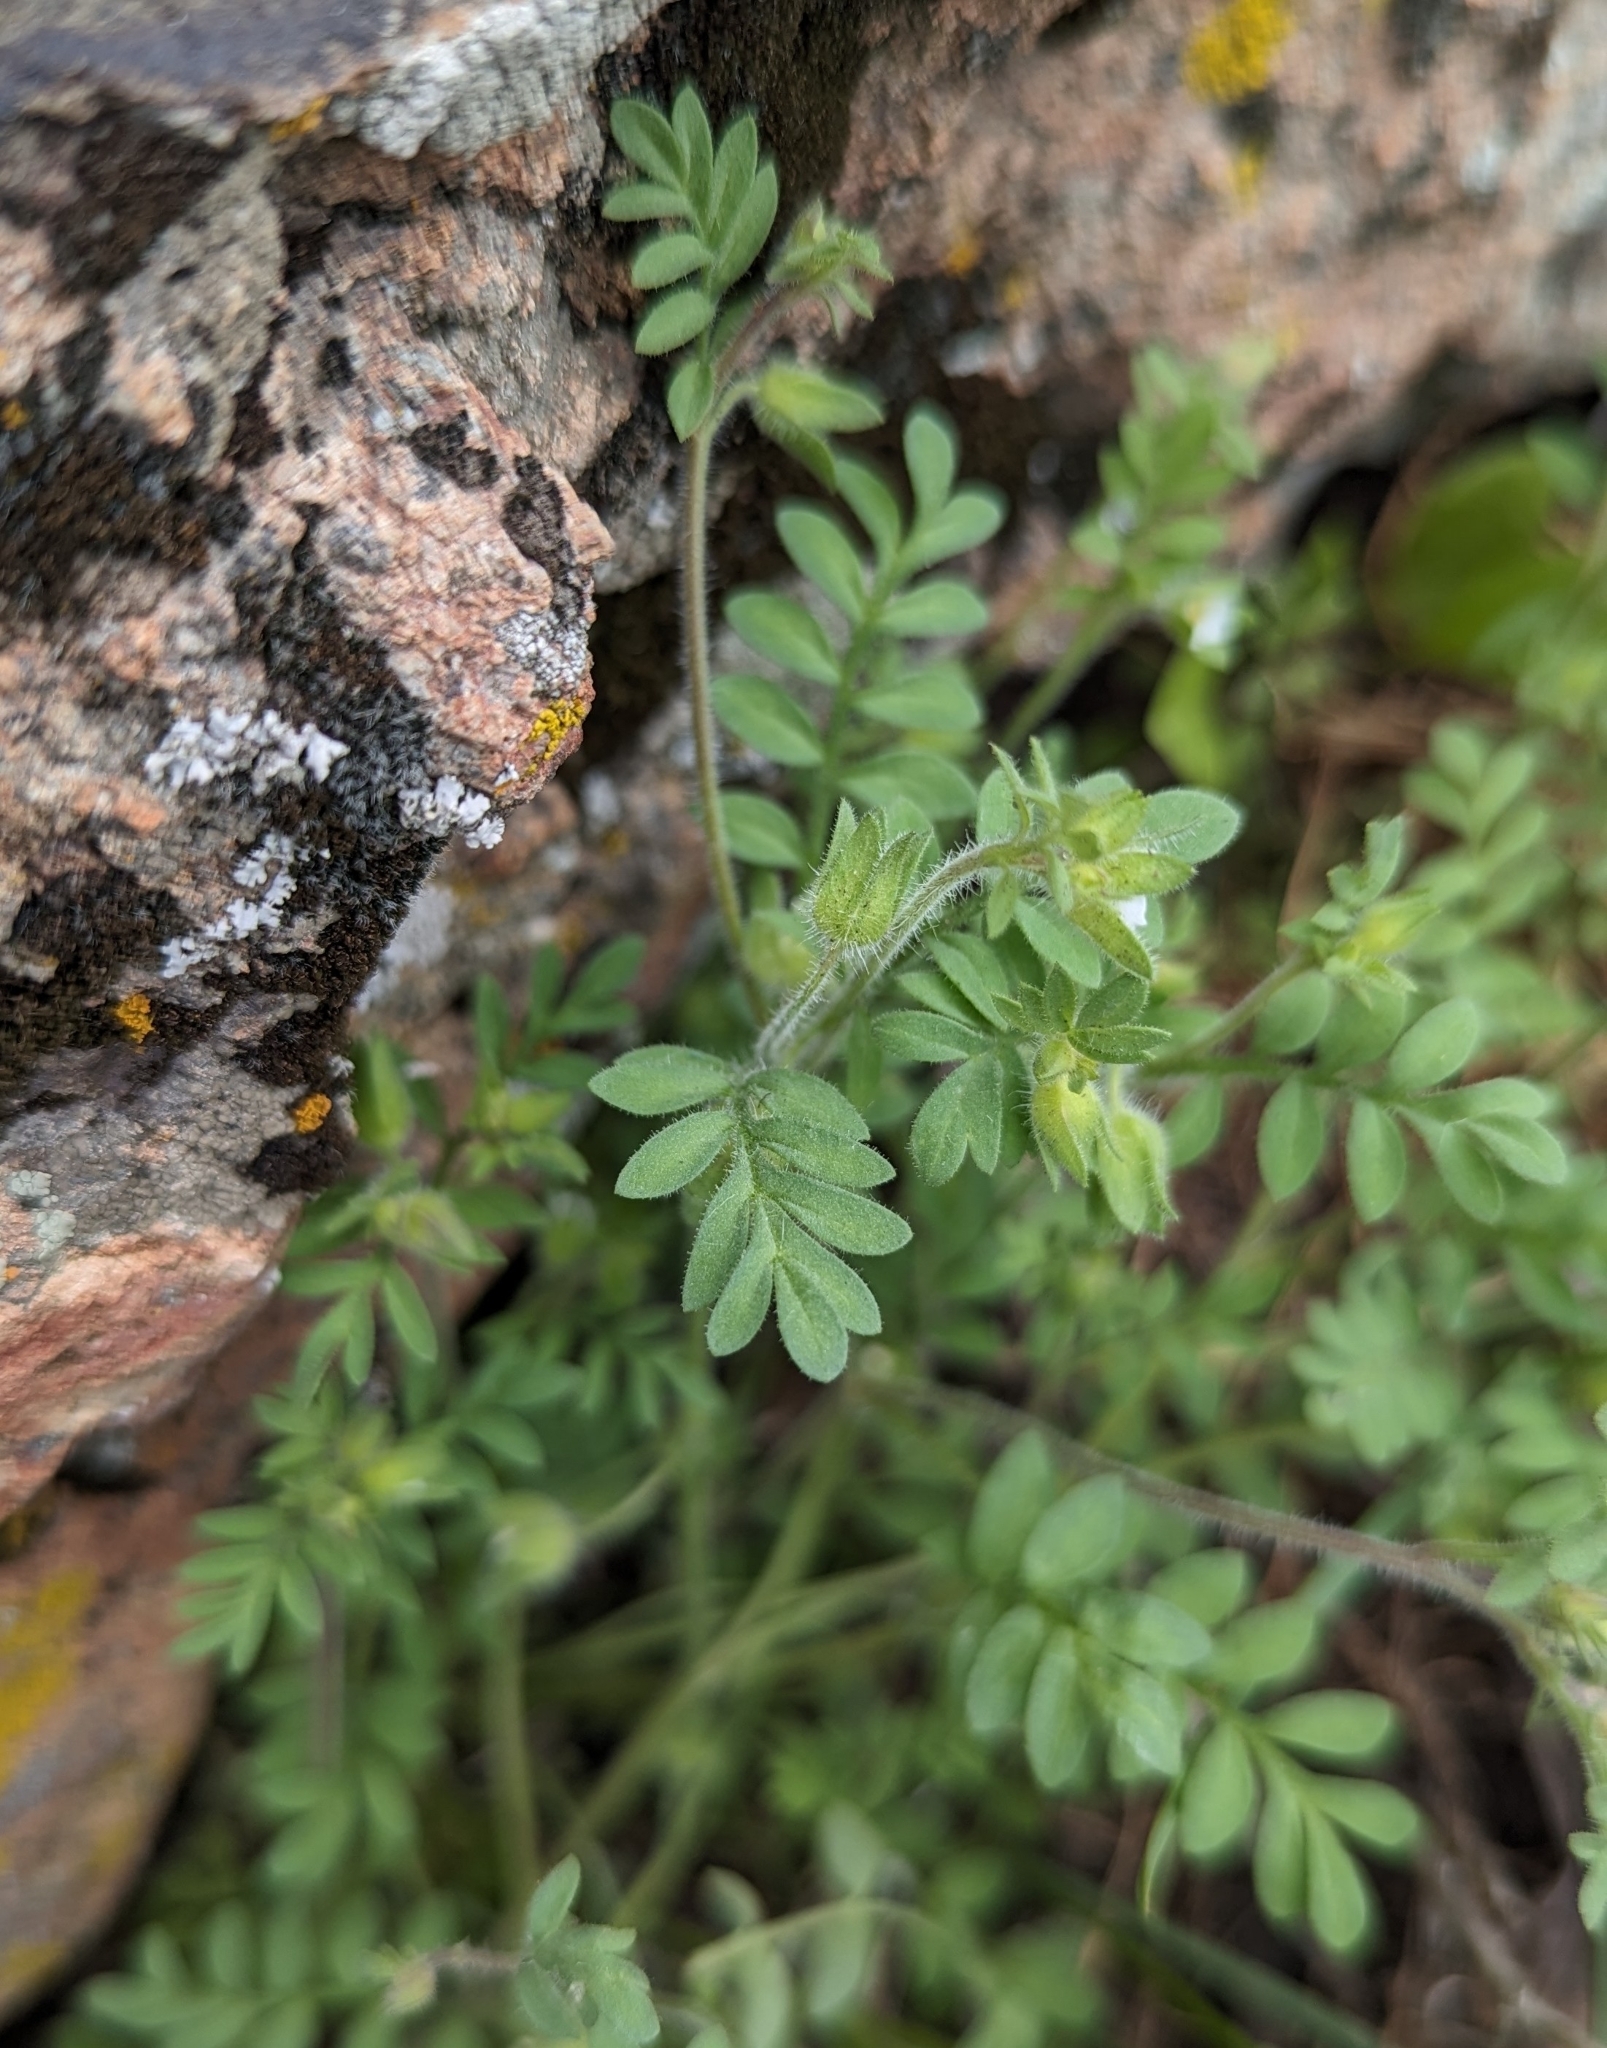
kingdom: Plantae
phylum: Tracheophyta
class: Magnoliopsida
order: Ericales
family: Polemoniaceae
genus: Polemonium
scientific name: Polemonium micranthum
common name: Annual jacob's-ladder
